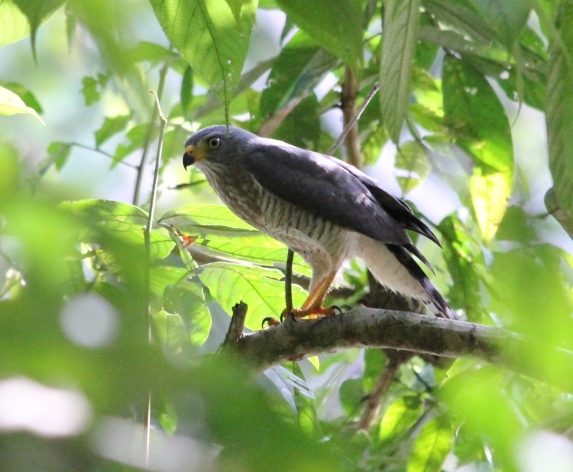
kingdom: Animalia
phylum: Chordata
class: Aves
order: Accipitriformes
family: Accipitridae
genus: Rupornis
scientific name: Rupornis magnirostris
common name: Roadside hawk
